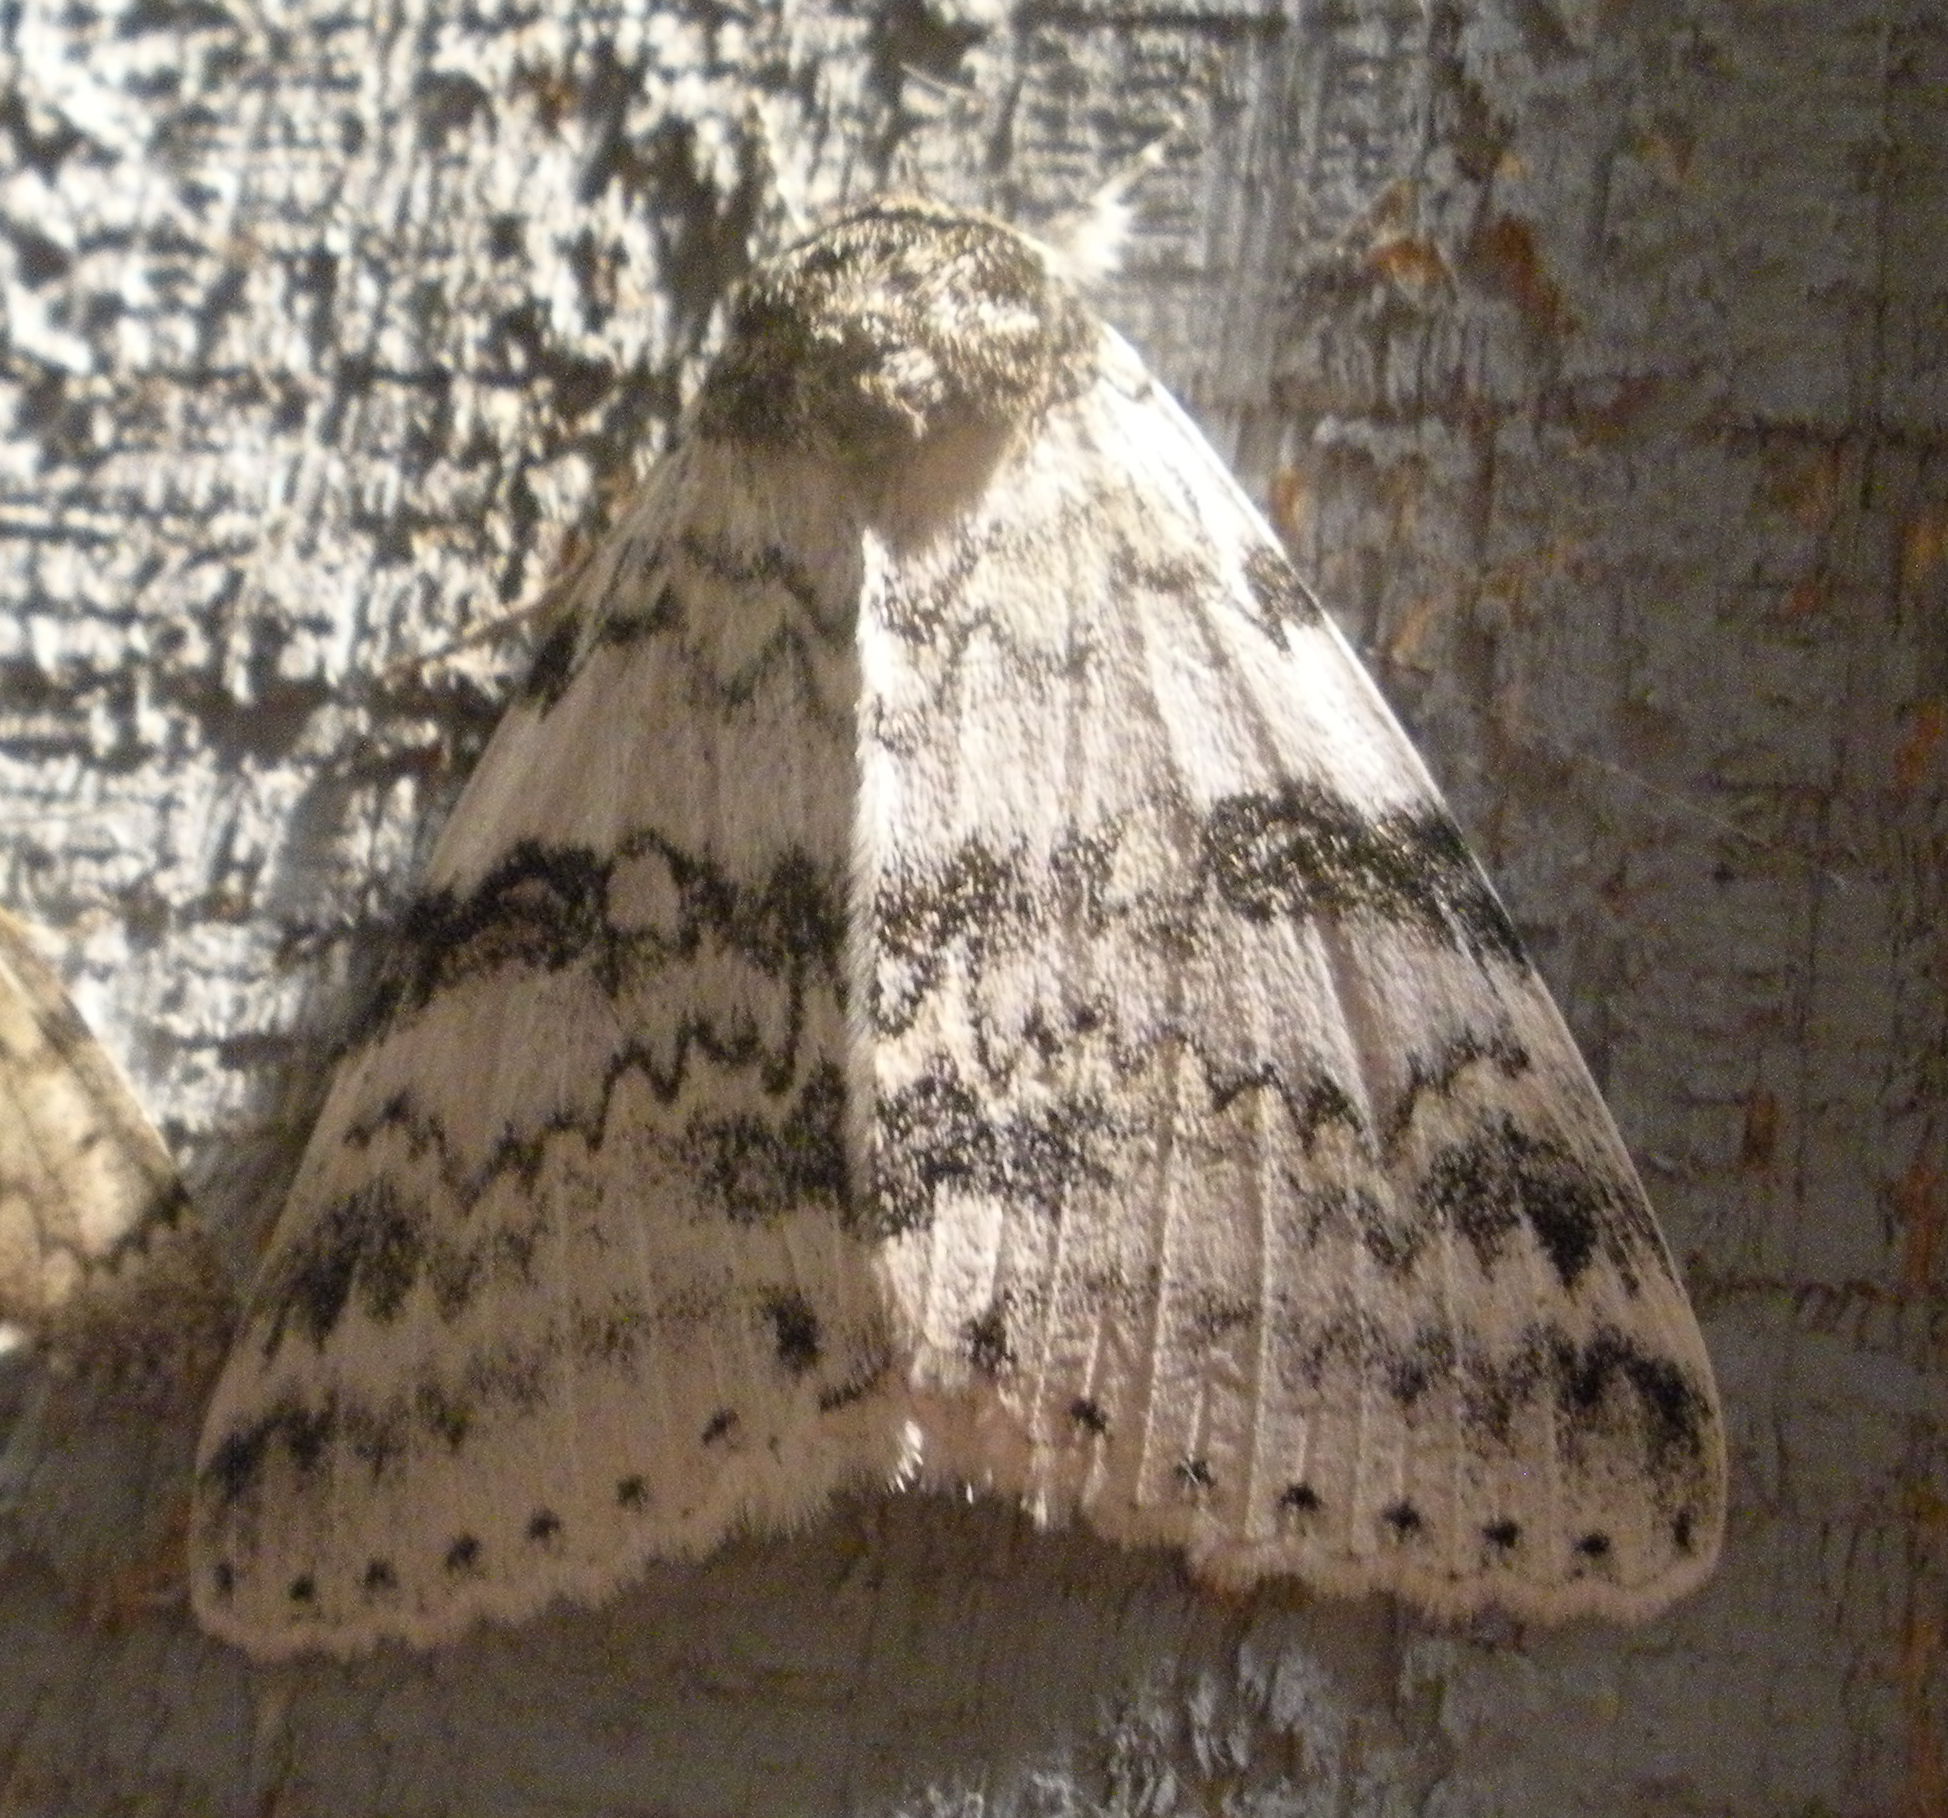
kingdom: Animalia
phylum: Arthropoda
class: Insecta
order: Lepidoptera
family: Erebidae
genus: Catocala
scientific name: Catocala relicta
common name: White underwing
